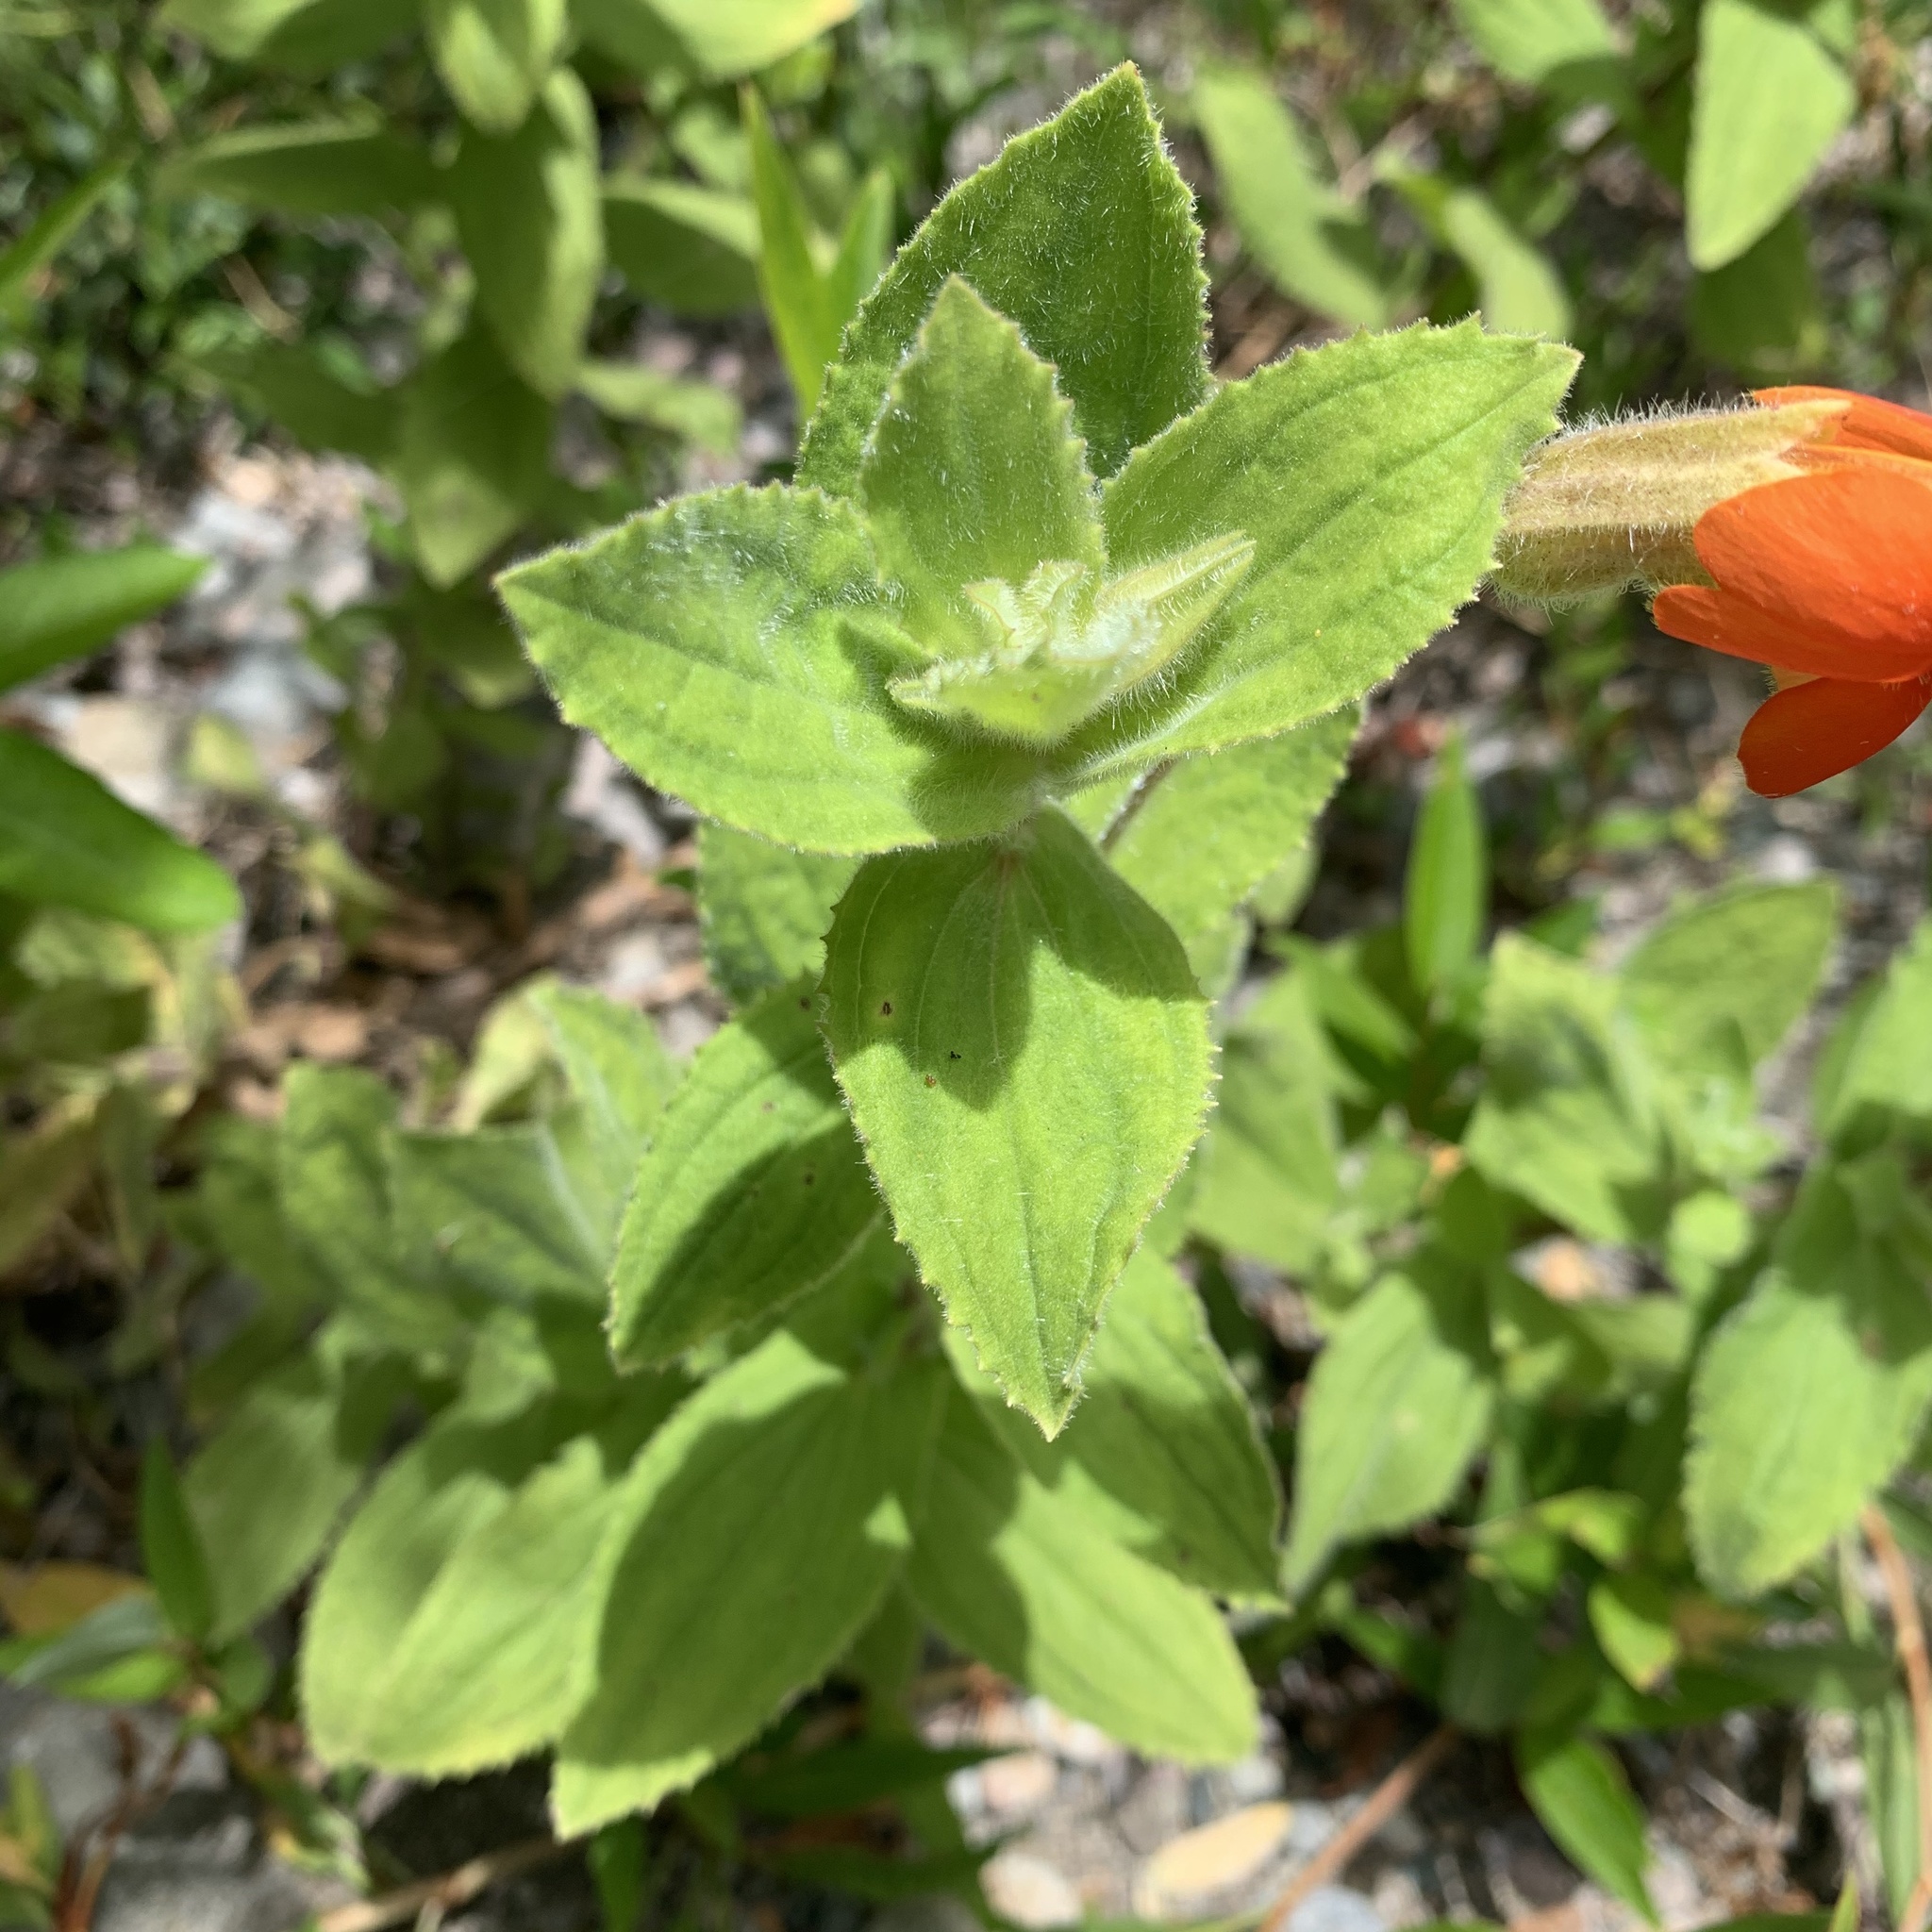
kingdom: Plantae
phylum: Tracheophyta
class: Magnoliopsida
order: Lamiales
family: Phrymaceae
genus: Erythranthe
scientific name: Erythranthe cardinalis
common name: Scarlet monkey-flower
